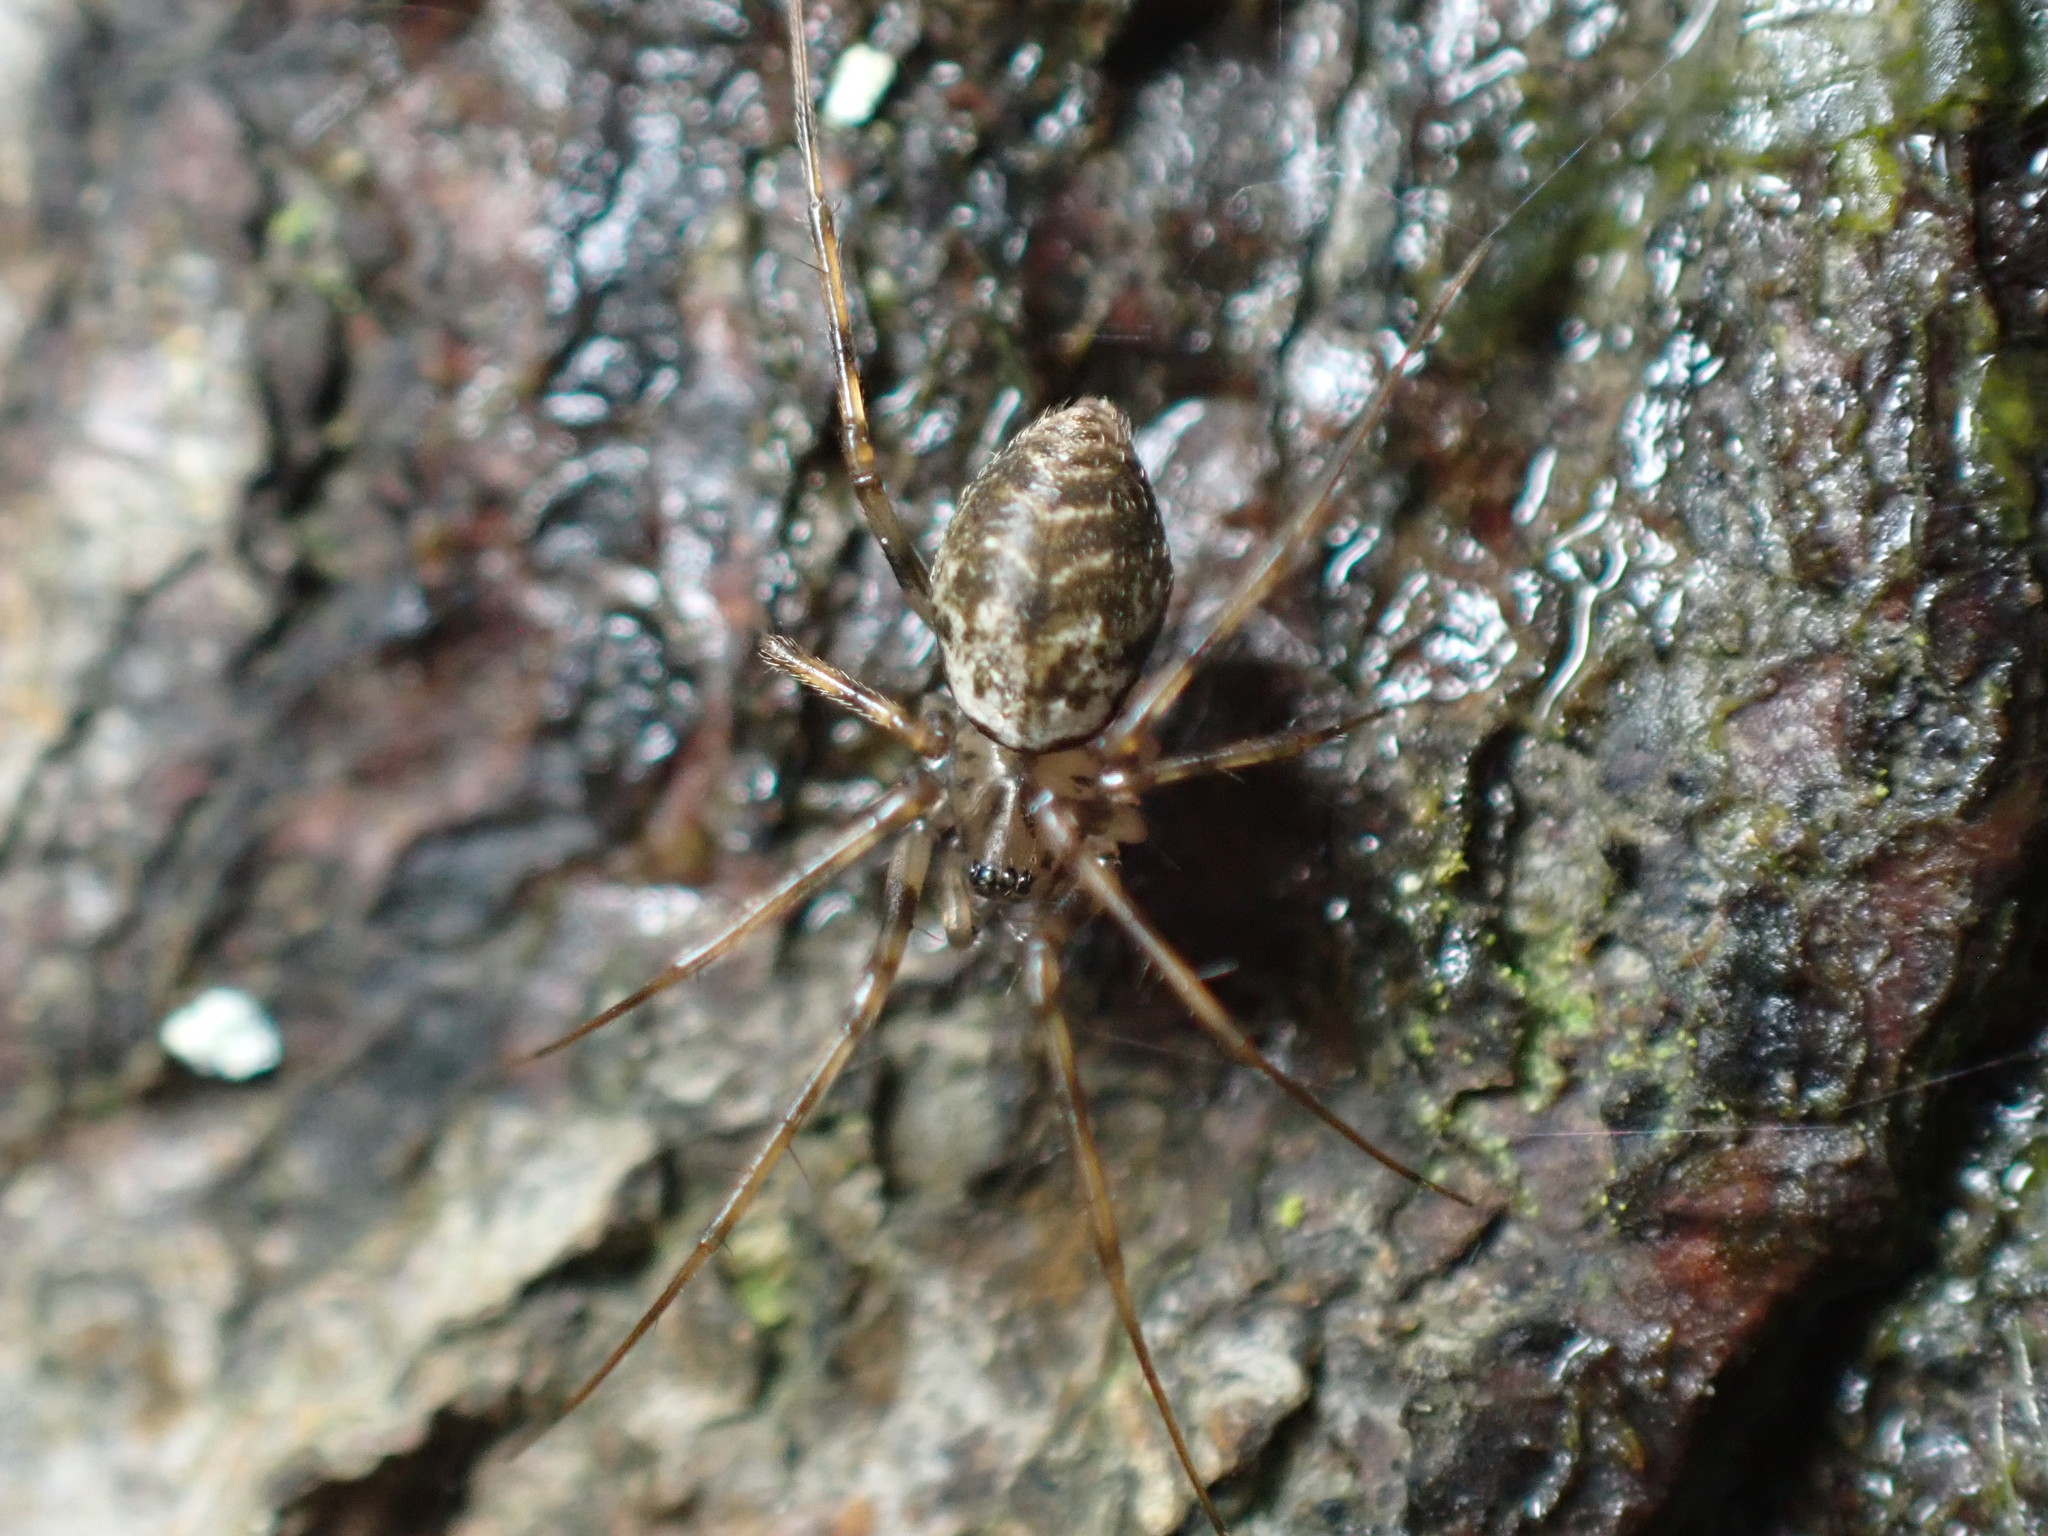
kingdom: Animalia
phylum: Arthropoda
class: Arachnida
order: Araneae
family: Linyphiidae
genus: Drapetisca
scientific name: Drapetisca socialis
